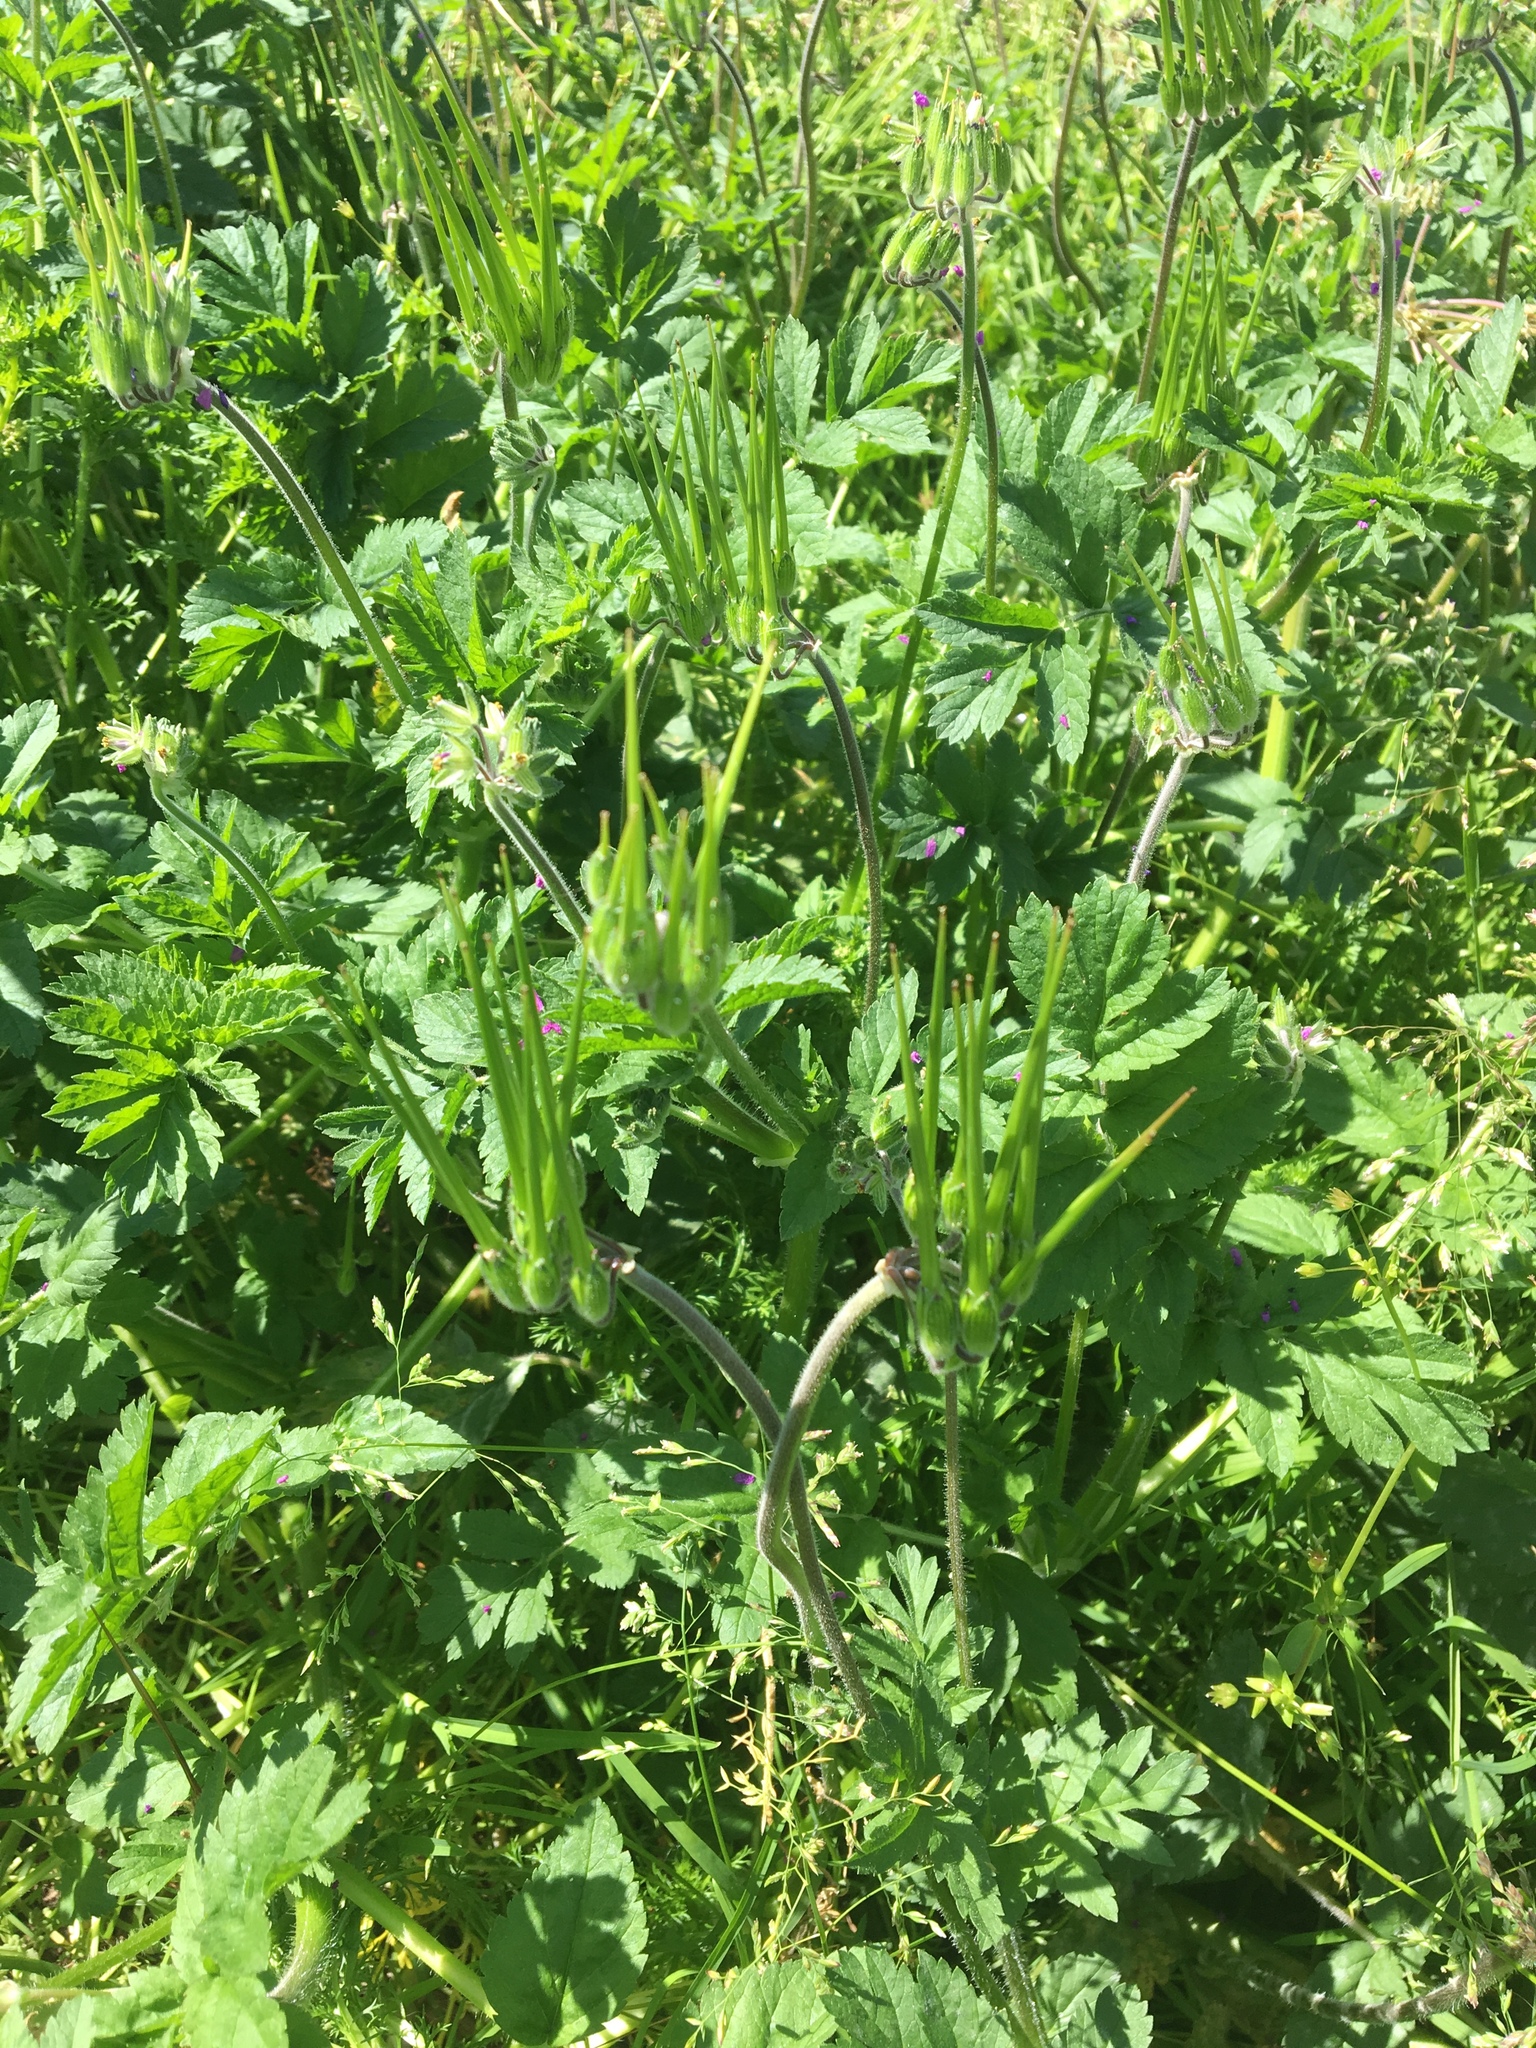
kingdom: Plantae
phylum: Tracheophyta
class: Magnoliopsida
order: Geraniales
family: Geraniaceae
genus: Erodium
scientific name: Erodium moschatum
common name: Musk stork's-bill
